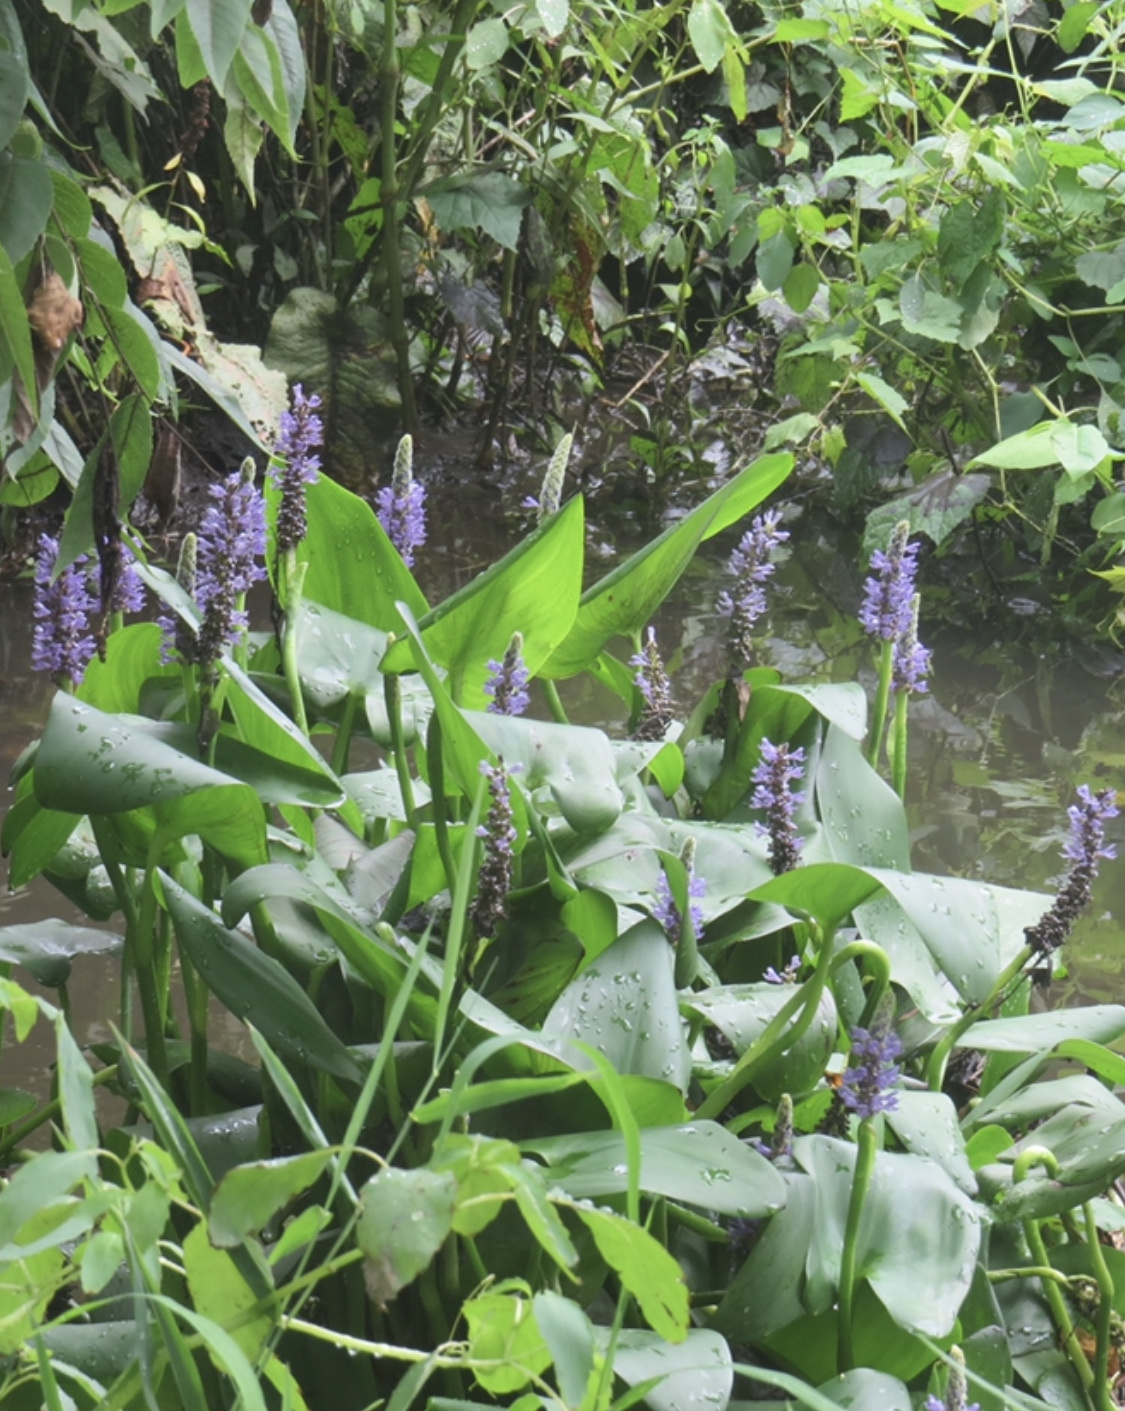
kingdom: Plantae
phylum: Tracheophyta
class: Liliopsida
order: Commelinales
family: Pontederiaceae
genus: Pontederia
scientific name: Pontederia cordata
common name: Pickerelweed
